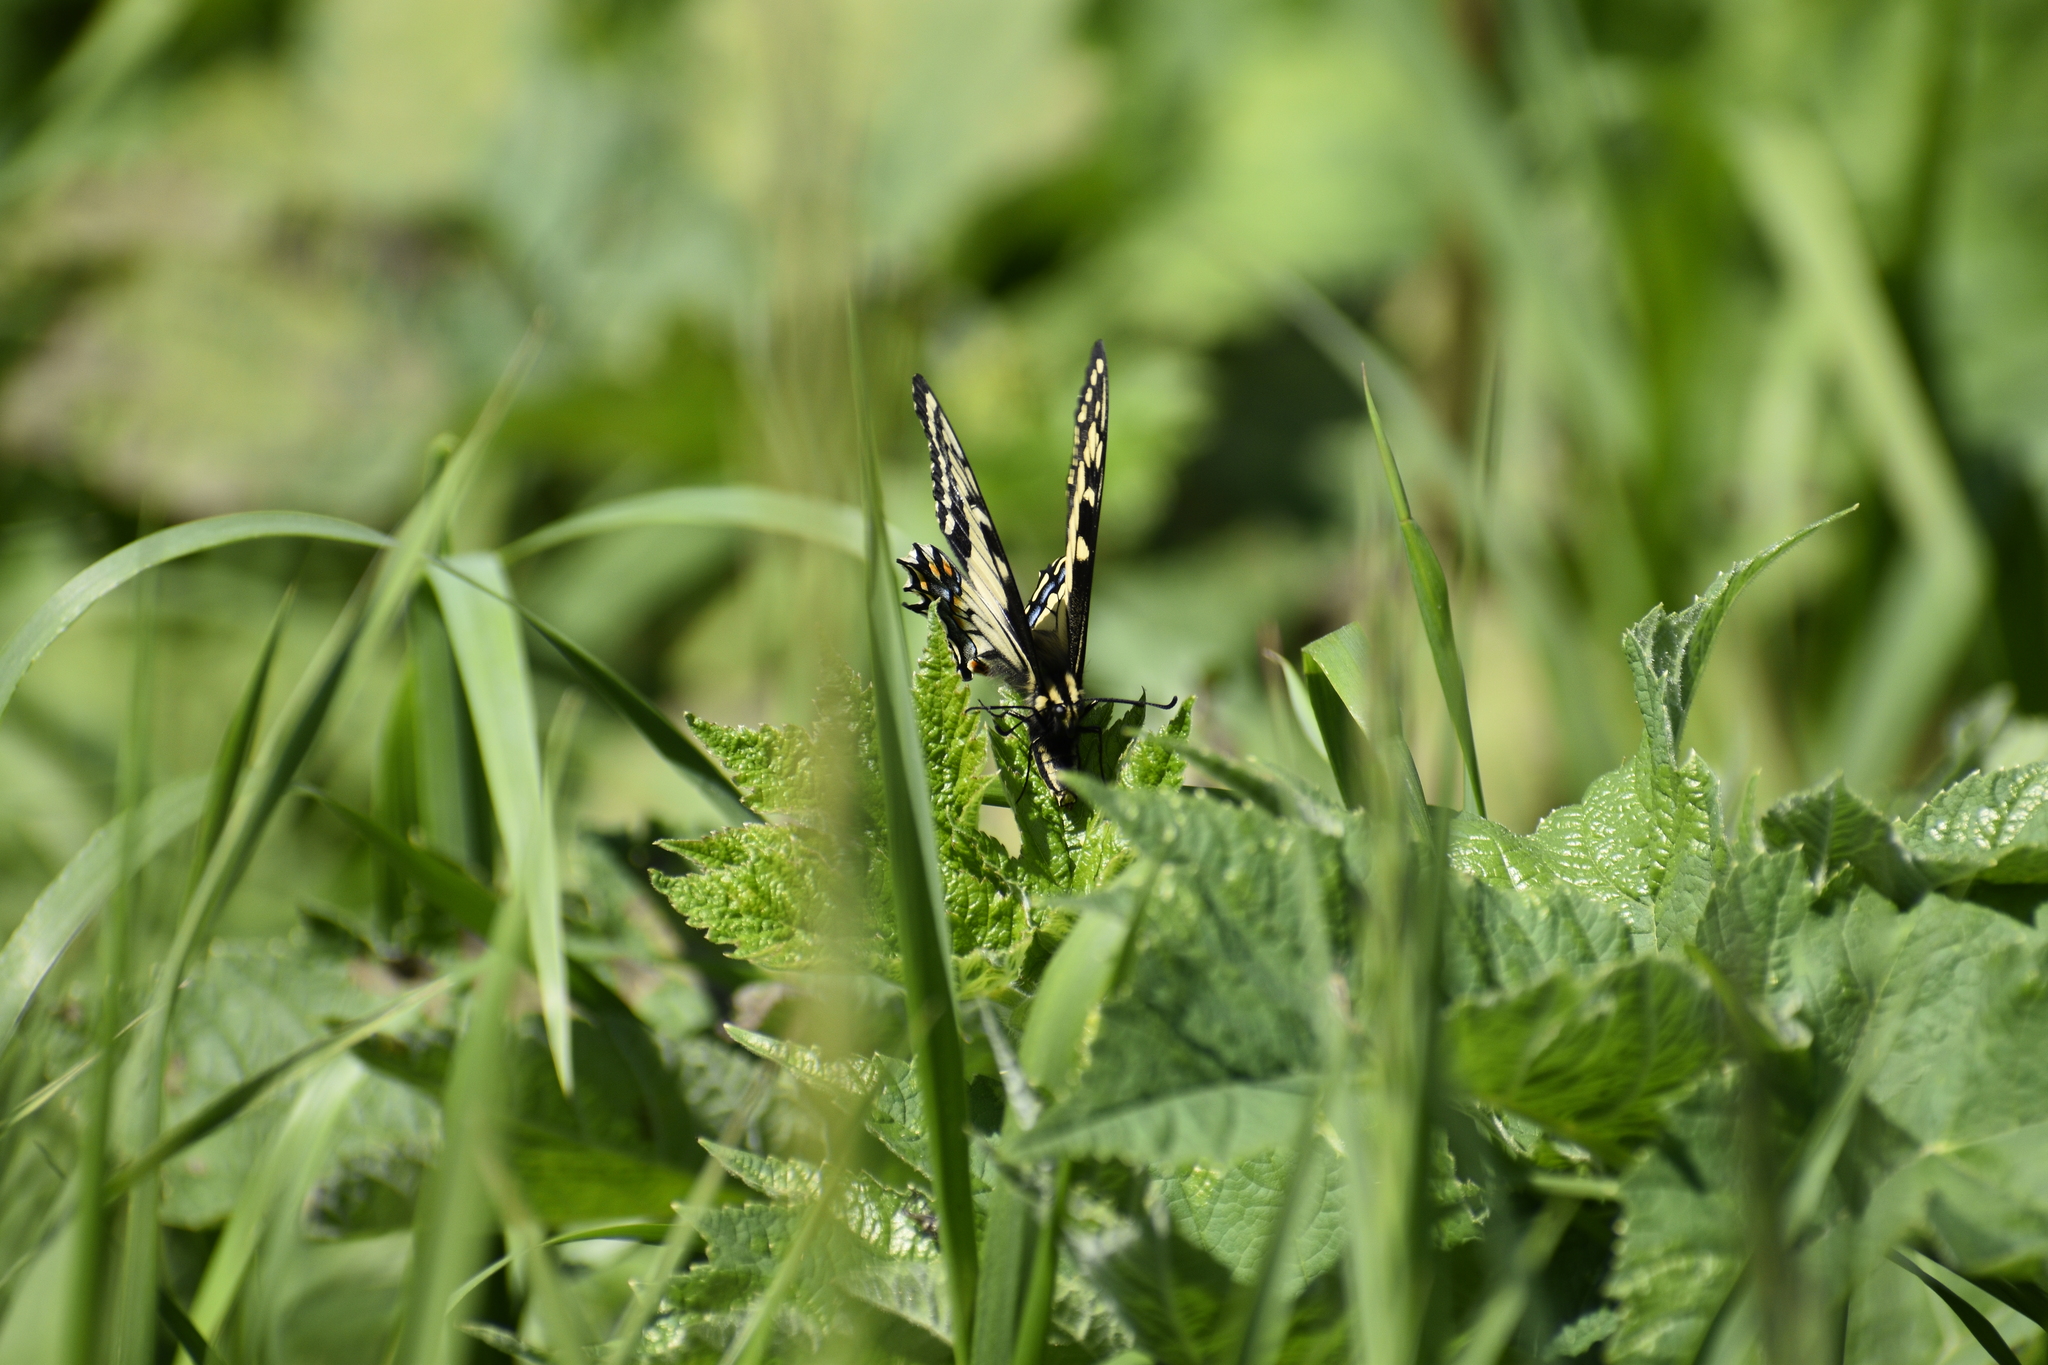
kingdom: Animalia
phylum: Arthropoda
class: Insecta
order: Lepidoptera
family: Papilionidae
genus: Papilio
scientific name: Papilio zelicaon
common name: Anise swallowtail
